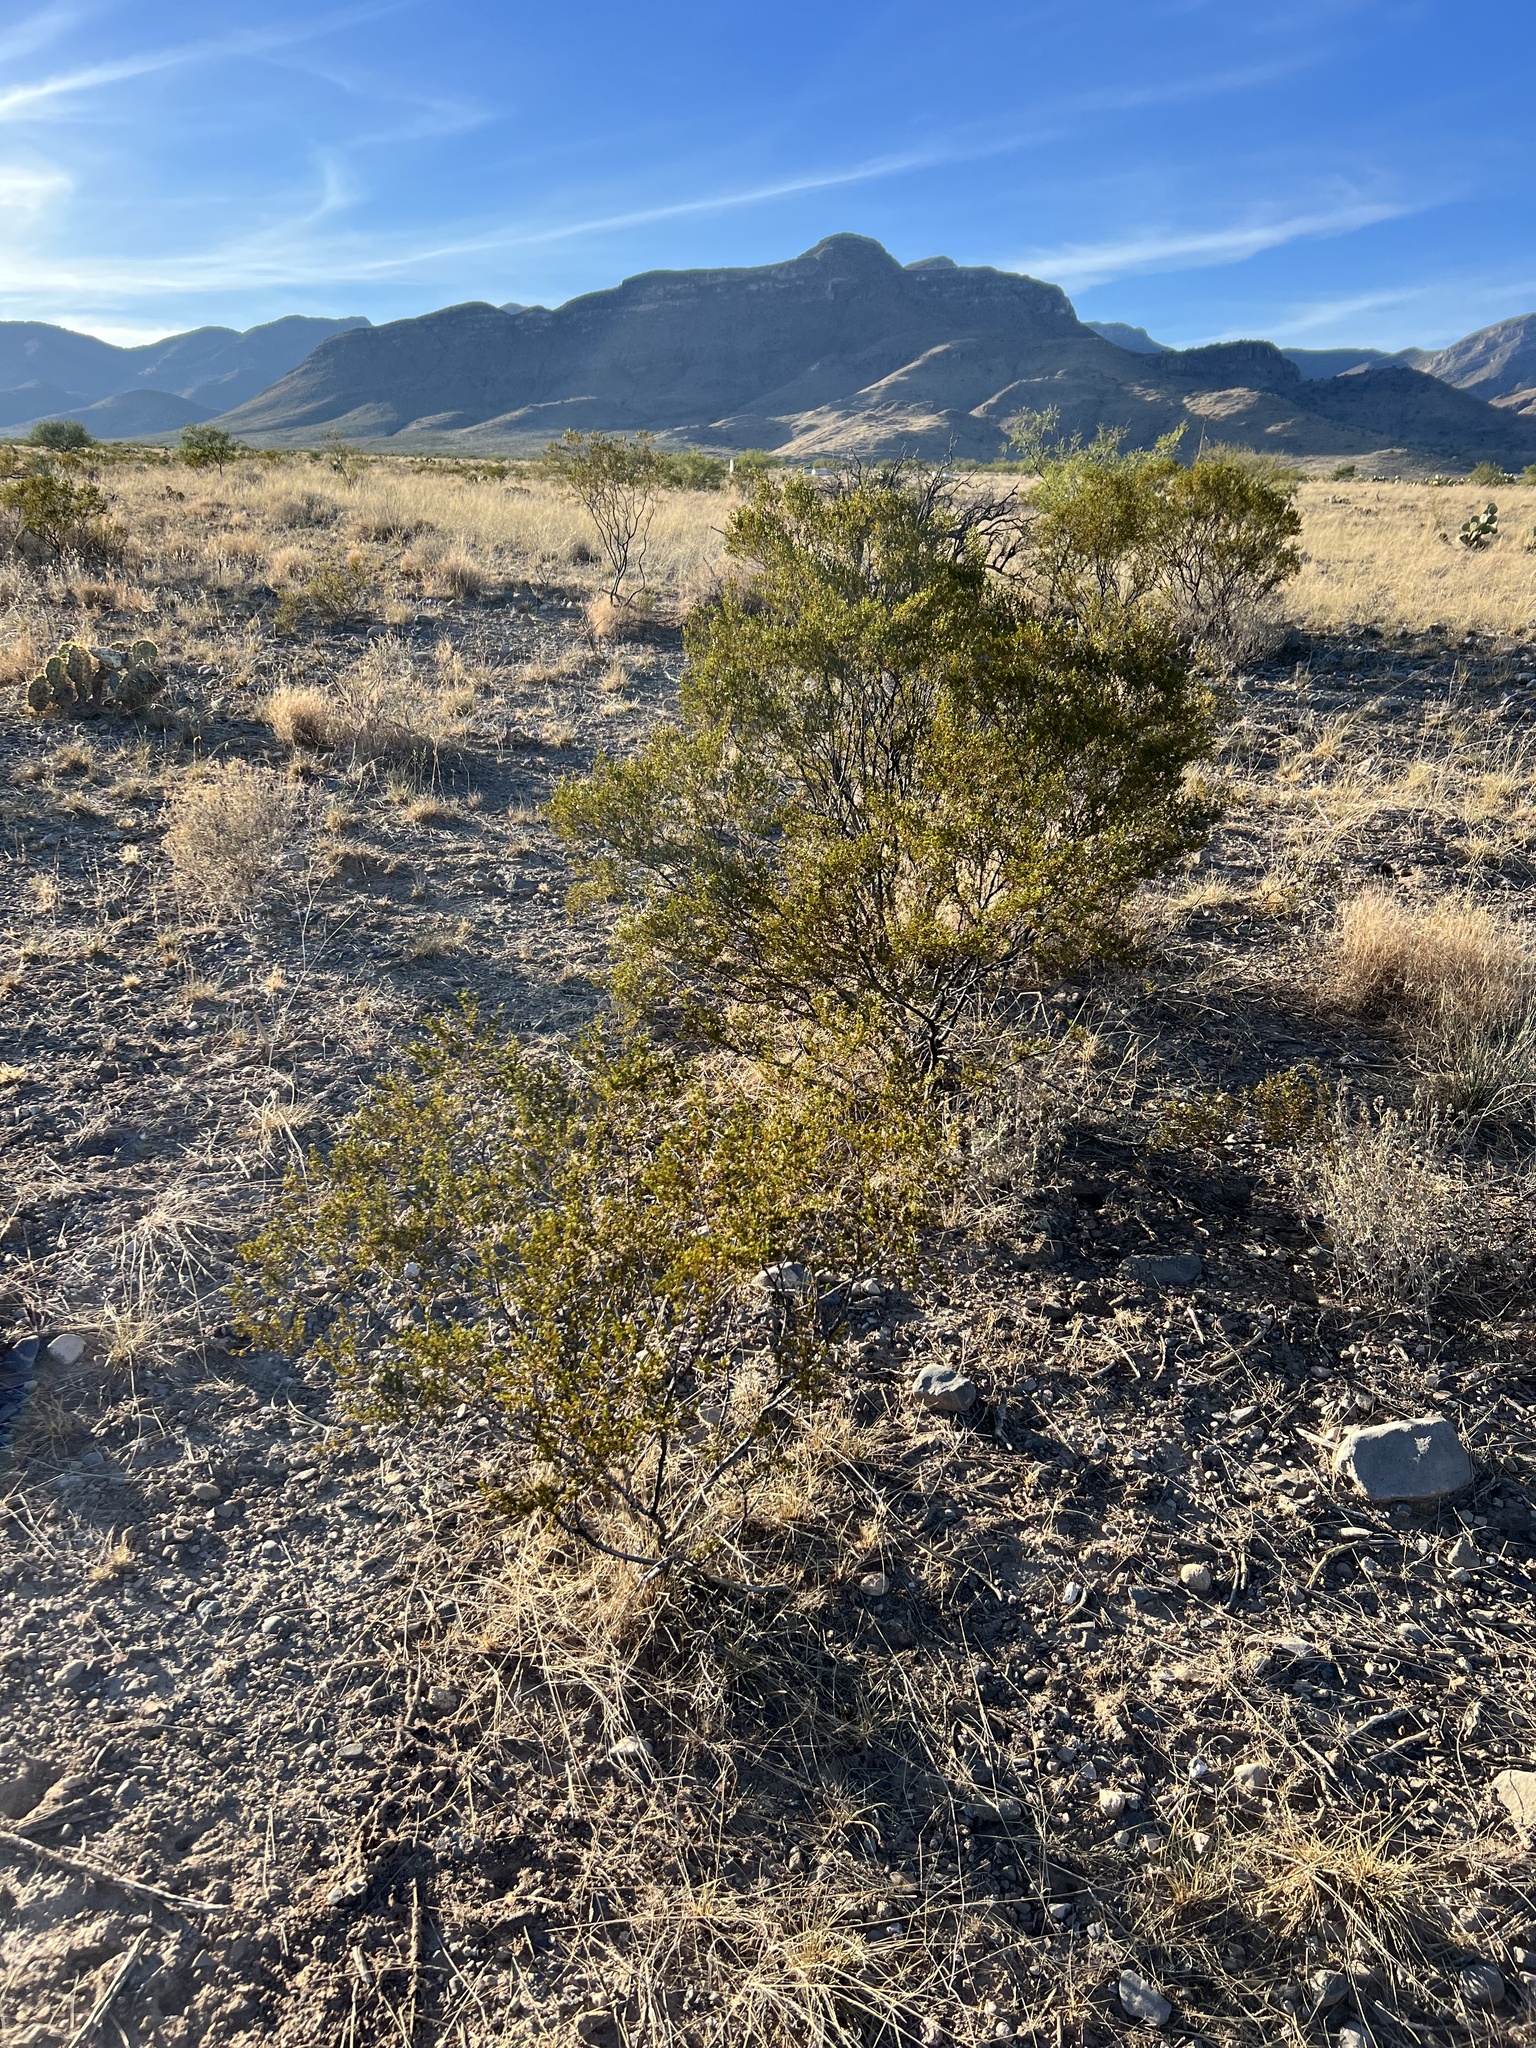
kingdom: Plantae
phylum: Tracheophyta
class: Magnoliopsida
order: Zygophyllales
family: Zygophyllaceae
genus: Larrea
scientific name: Larrea tridentata
